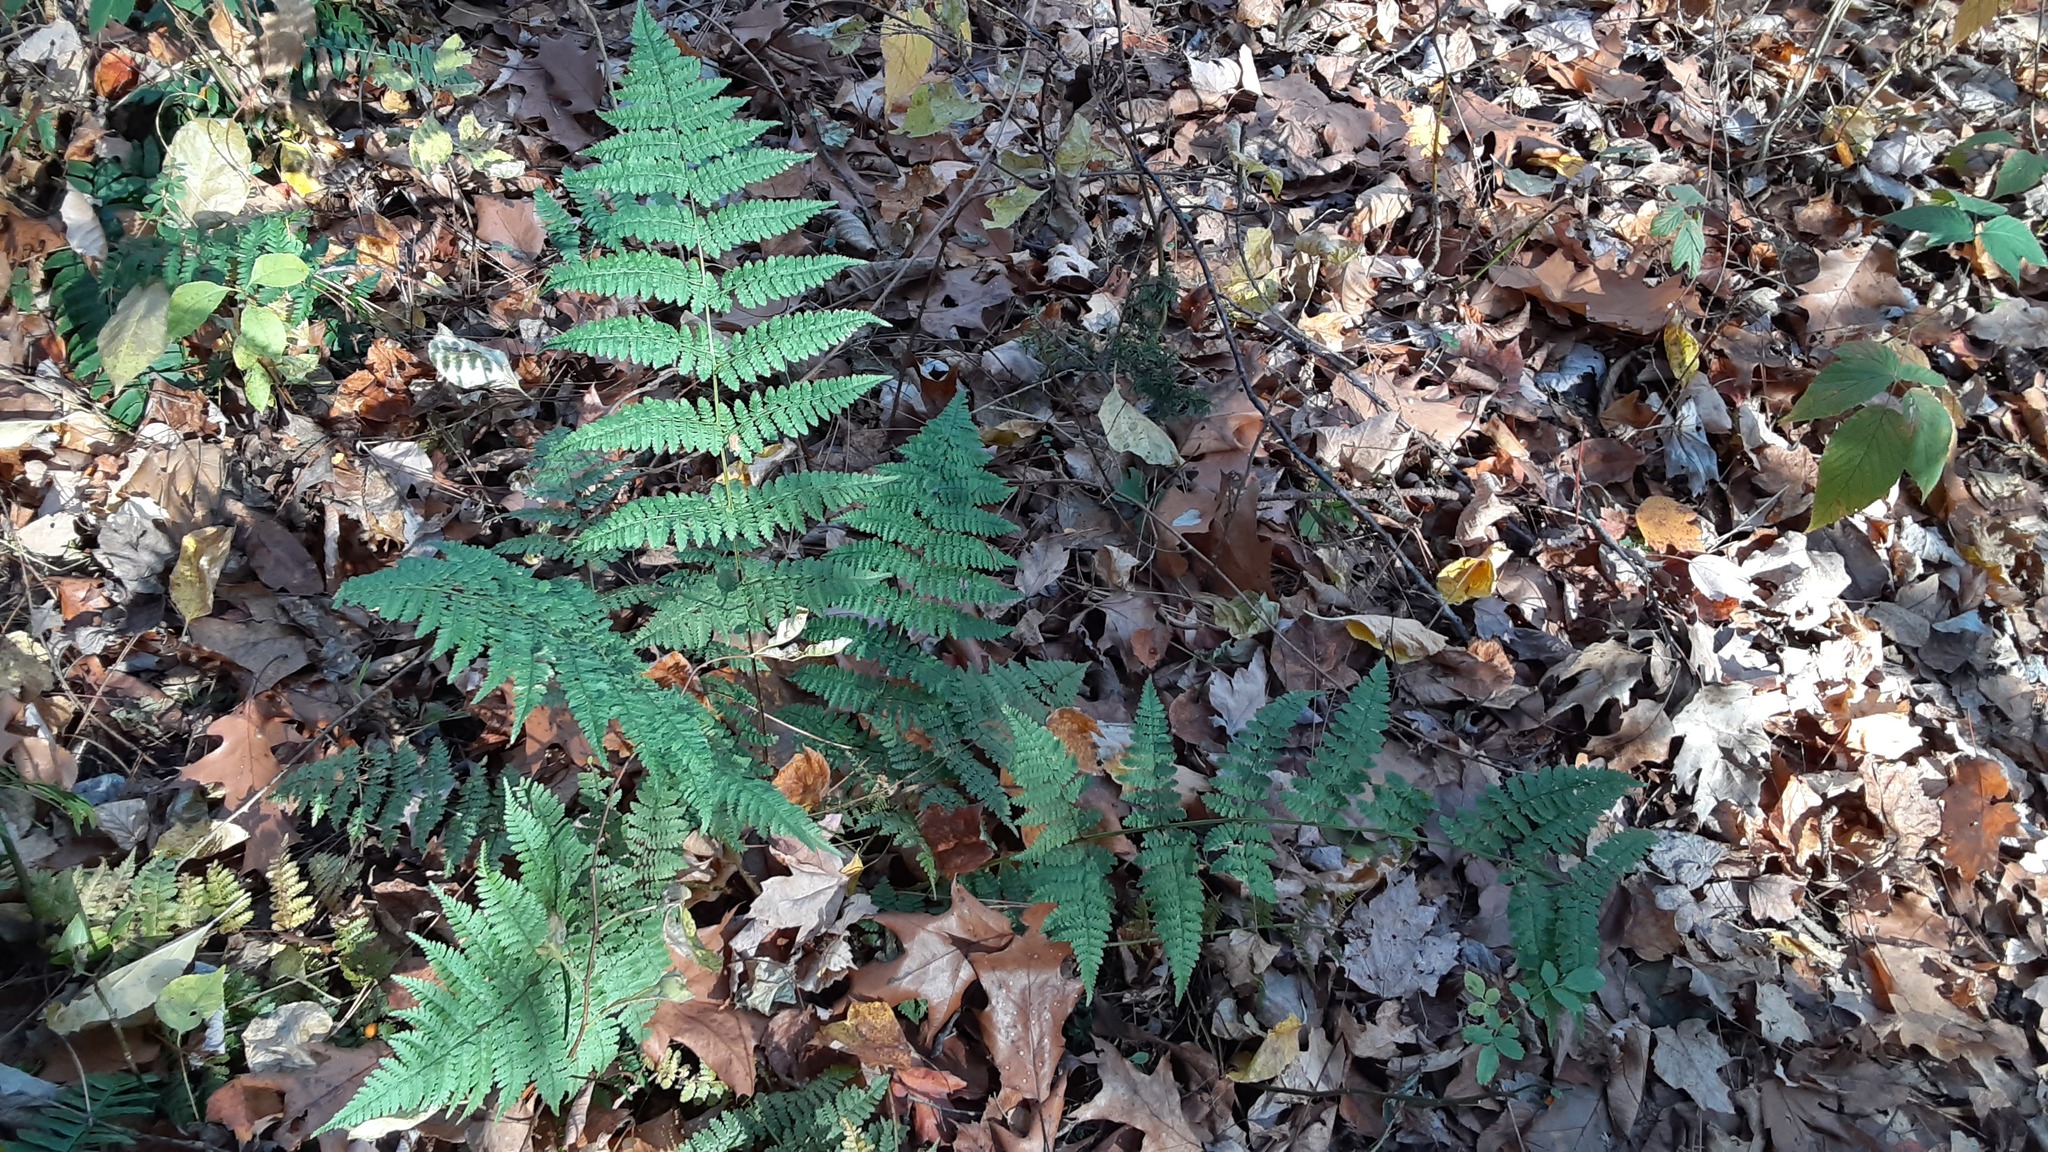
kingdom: Plantae
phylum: Tracheophyta
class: Polypodiopsida
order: Polypodiales
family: Dryopteridaceae
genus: Dryopteris
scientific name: Dryopteris intermedia
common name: Evergreen wood fern
